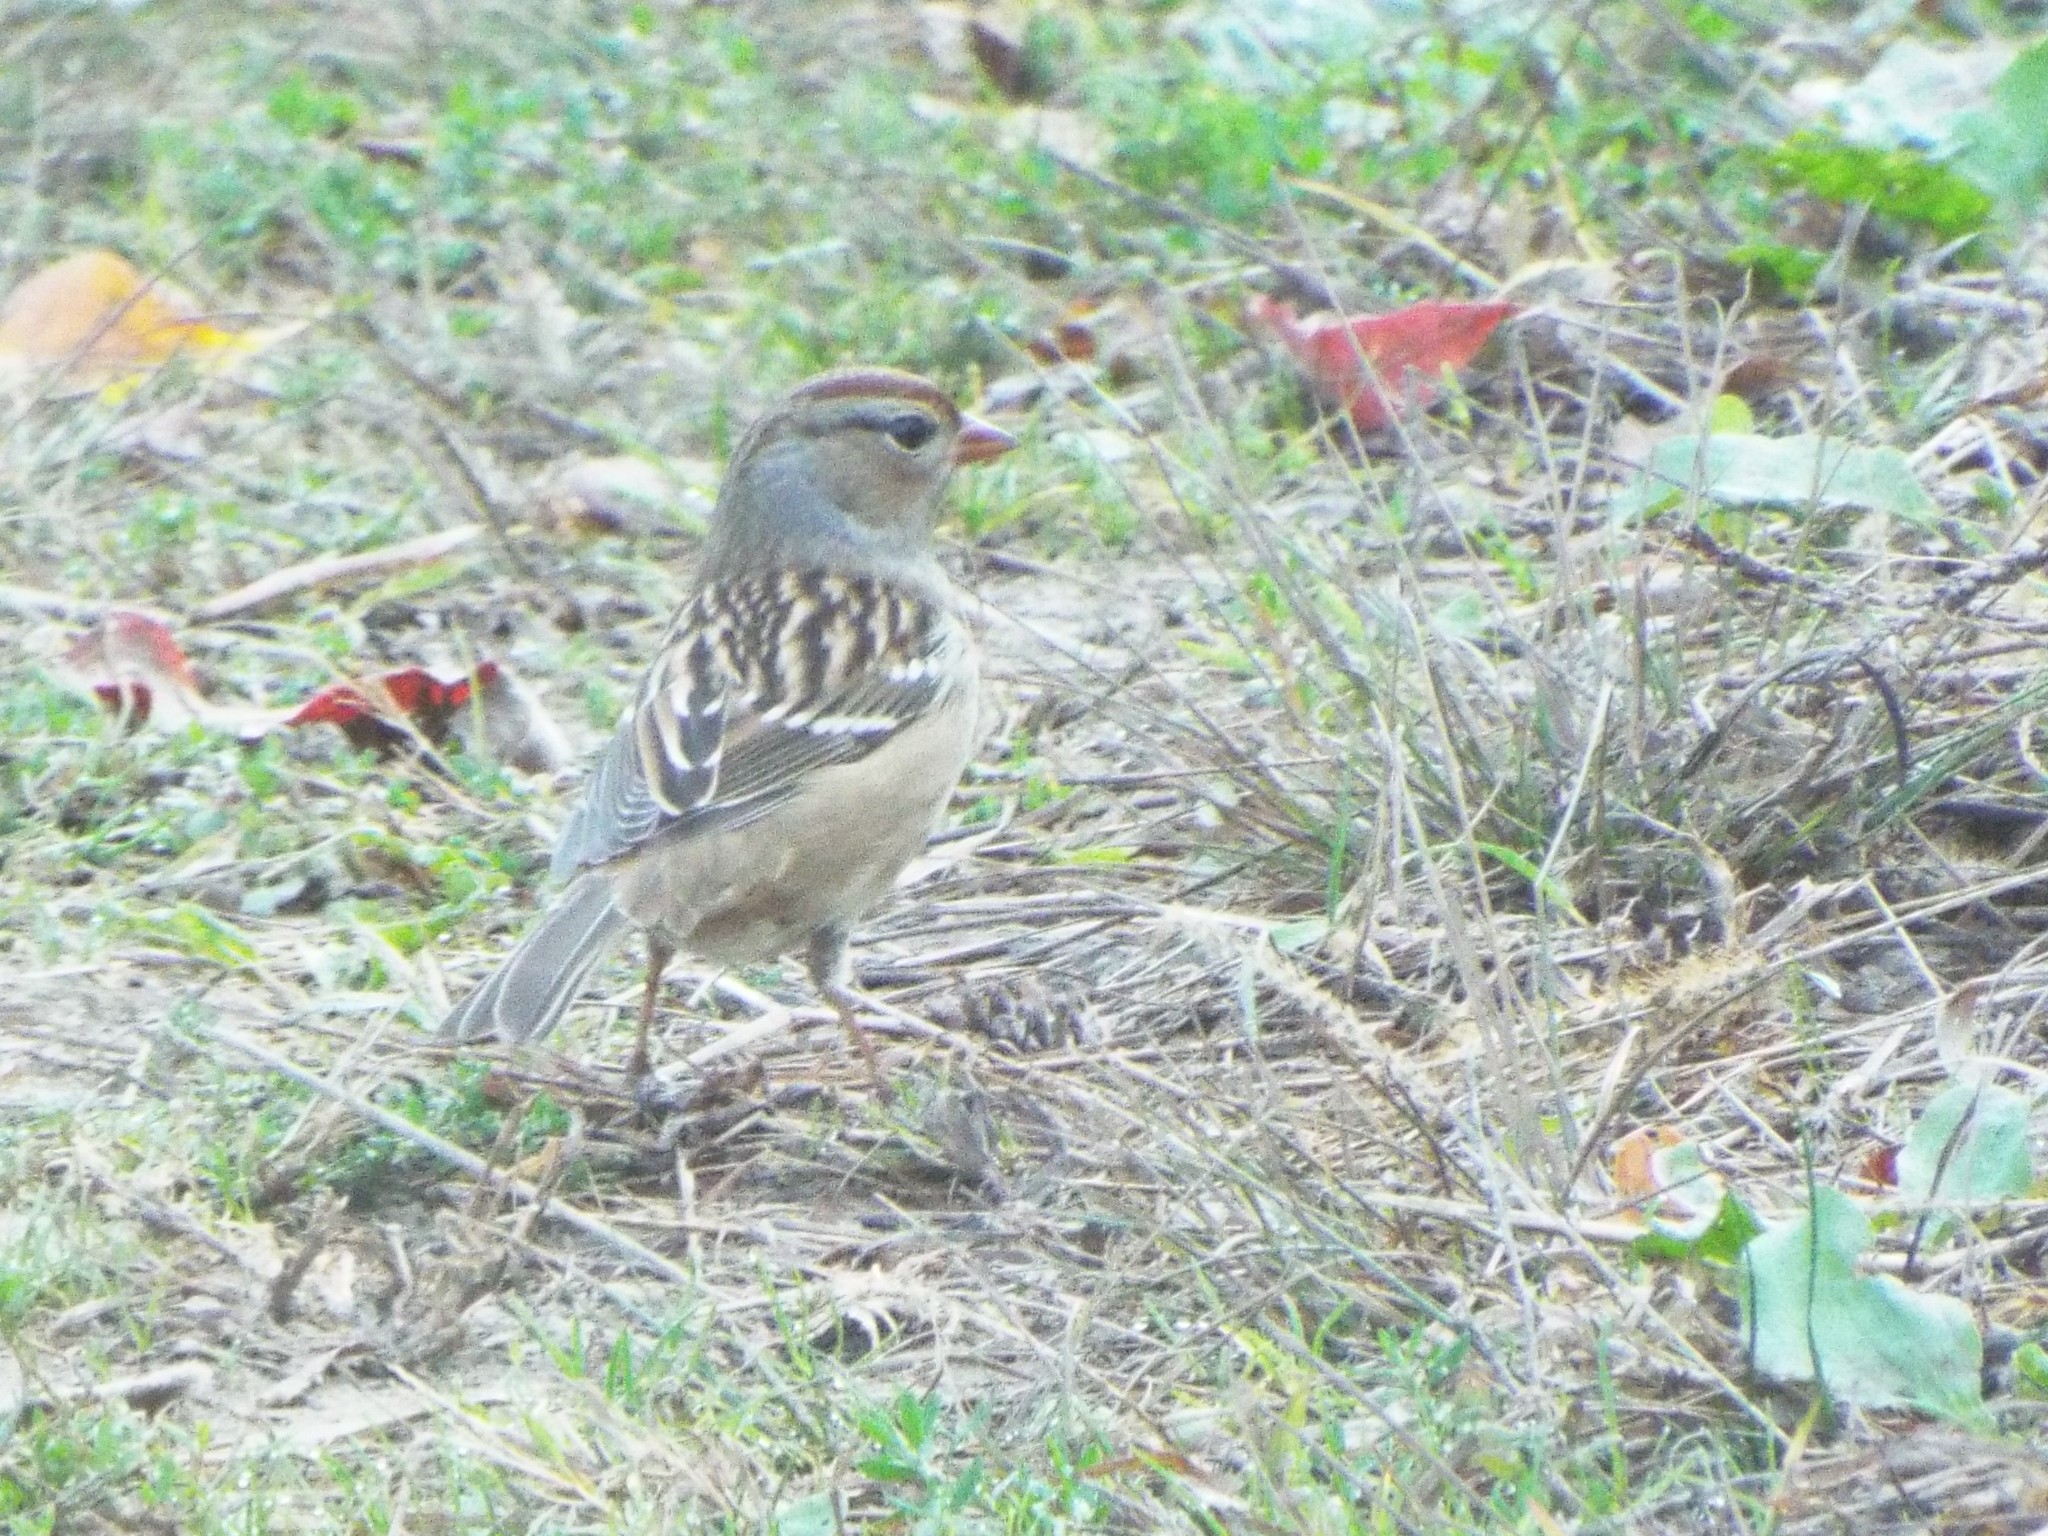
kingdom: Animalia
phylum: Chordata
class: Aves
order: Passeriformes
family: Passerellidae
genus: Zonotrichia
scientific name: Zonotrichia leucophrys
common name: White-crowned sparrow
